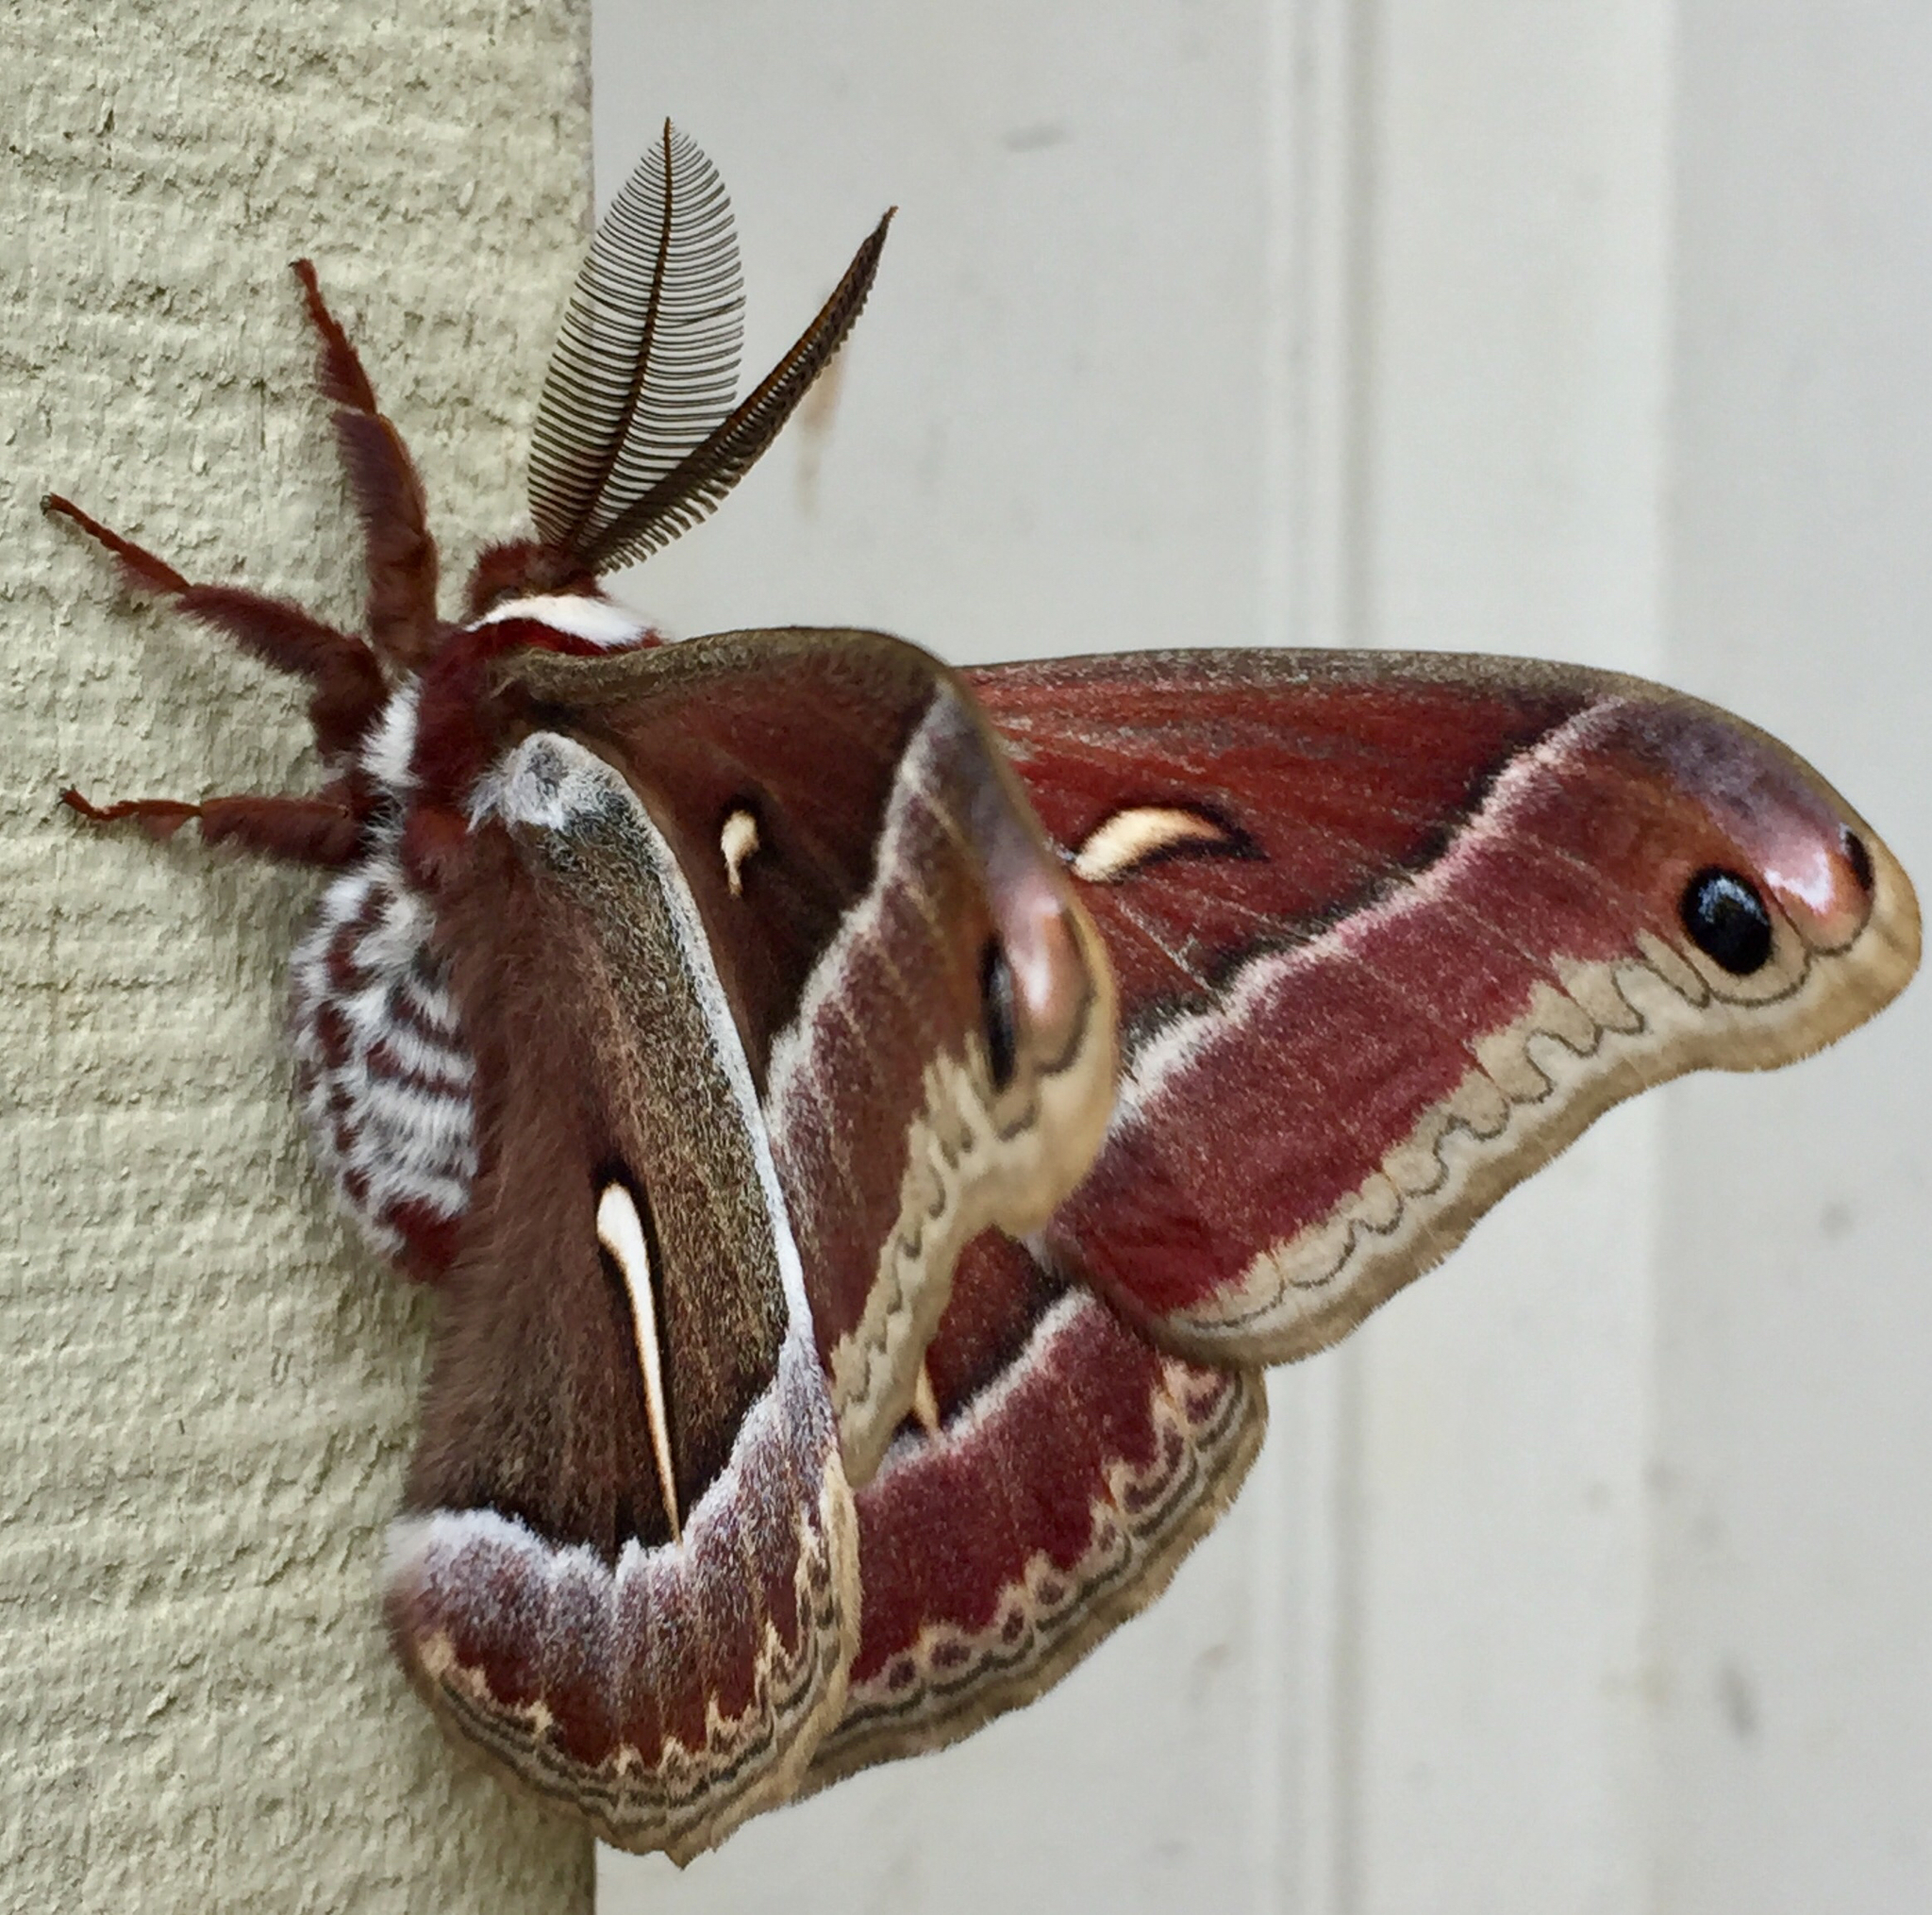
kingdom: Animalia
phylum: Arthropoda
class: Insecta
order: Lepidoptera
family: Saturniidae
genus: Hyalophora
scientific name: Hyalophora euryalus
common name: Ceanothus silkmoth
